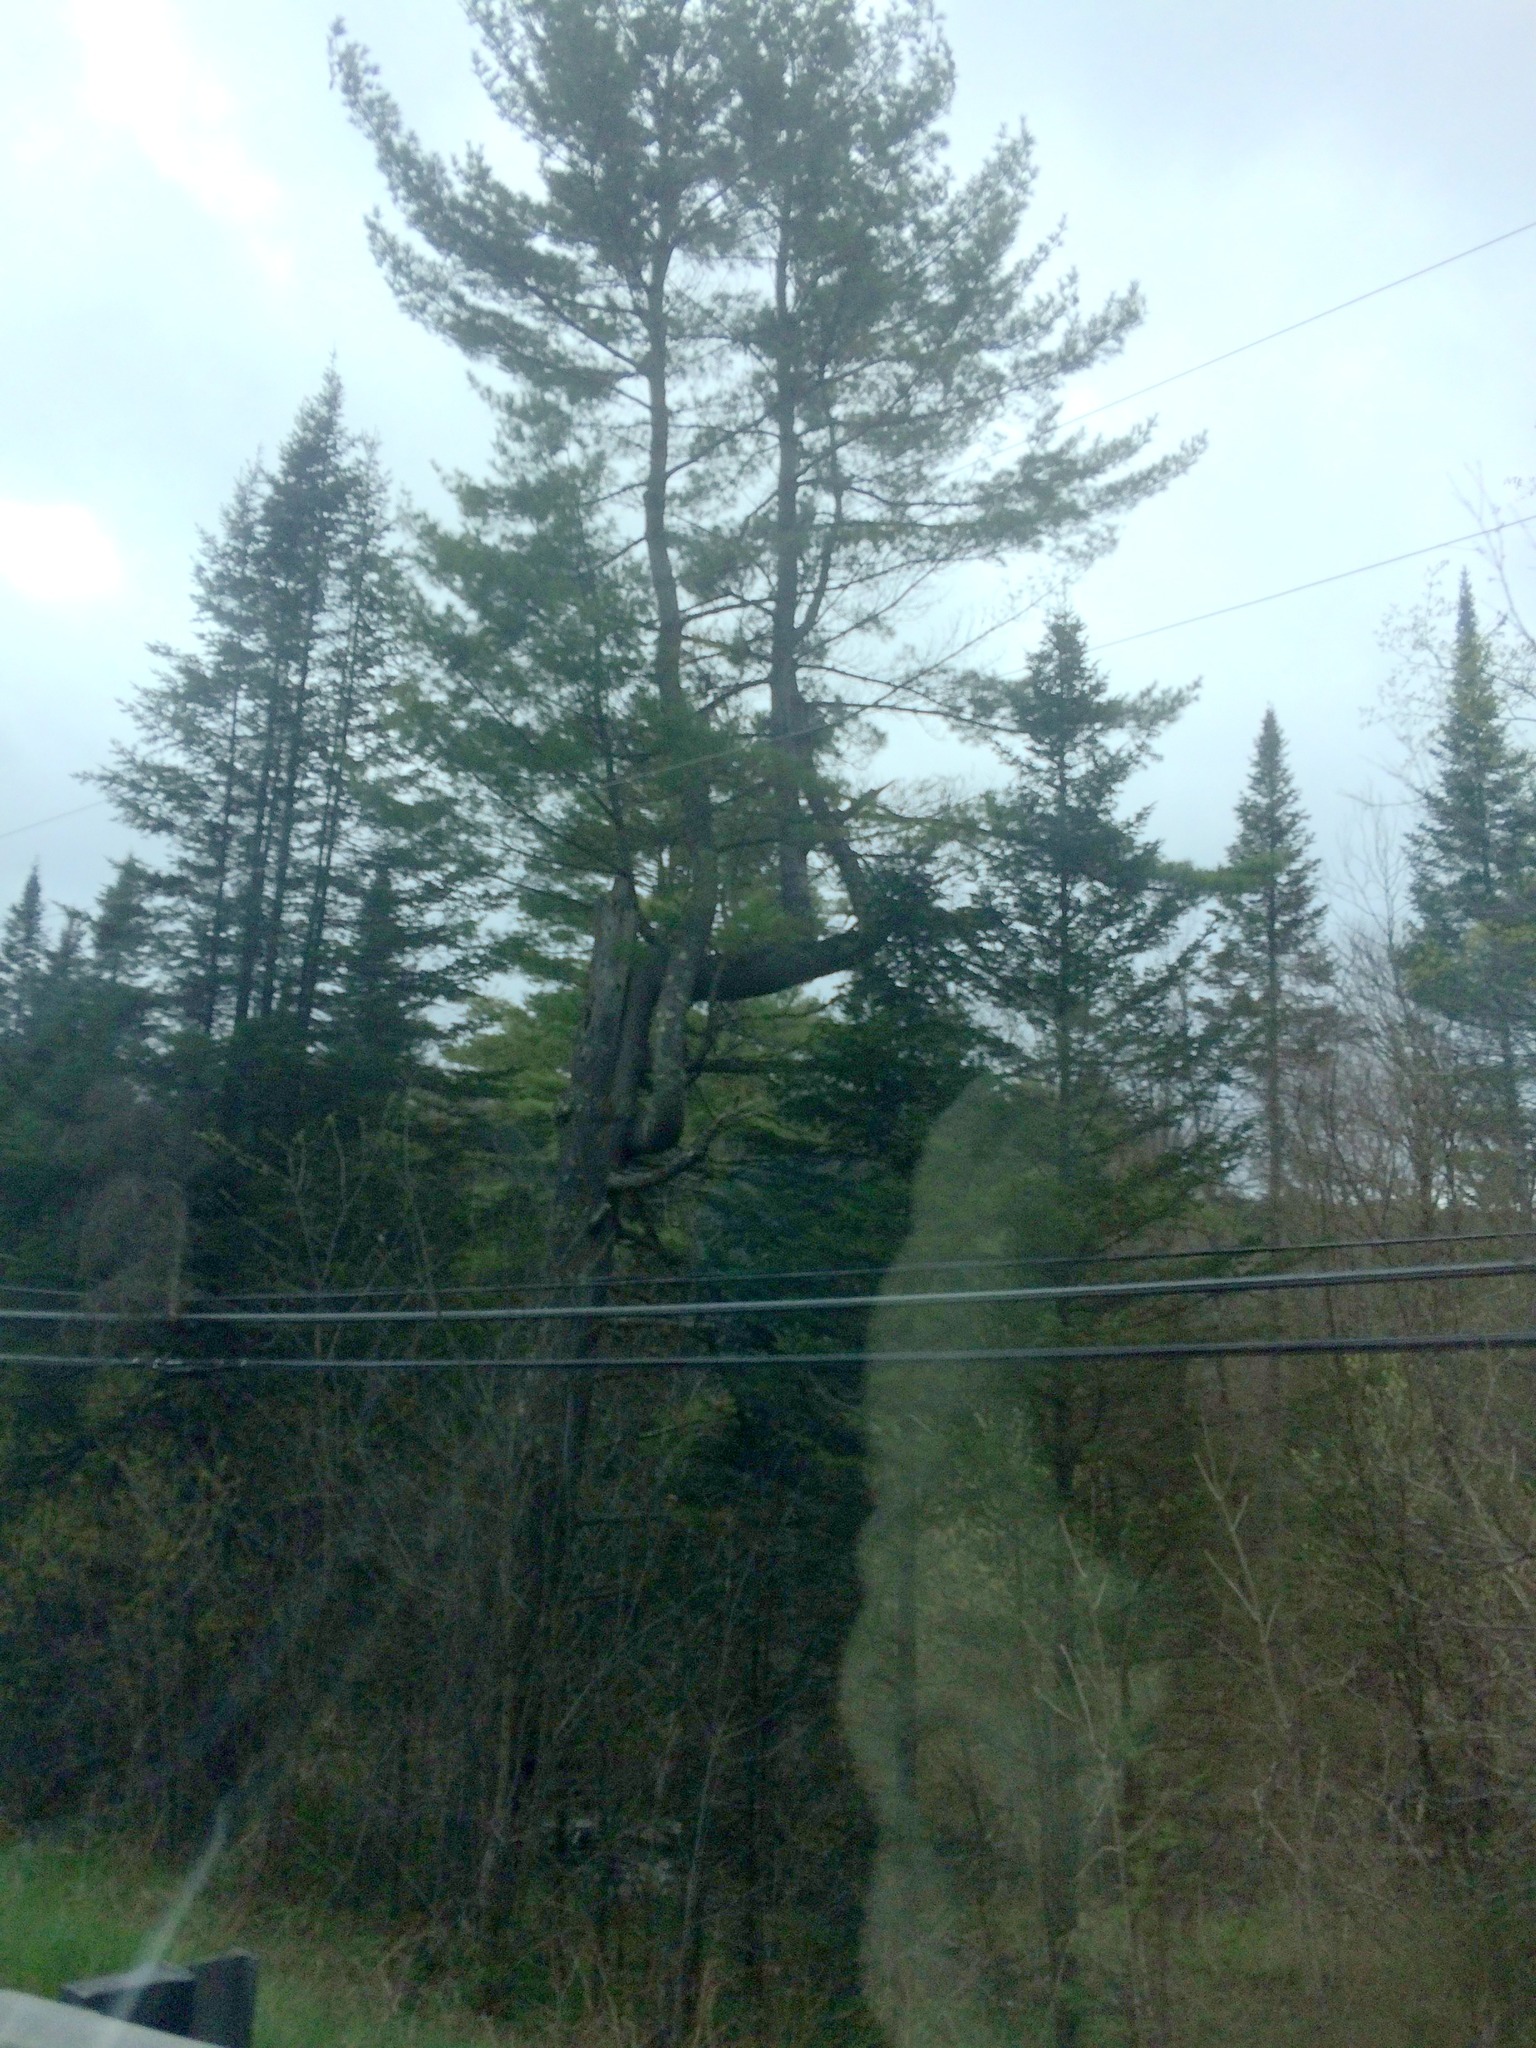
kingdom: Plantae
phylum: Tracheophyta
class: Pinopsida
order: Pinales
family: Pinaceae
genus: Pinus
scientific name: Pinus strobus
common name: Weymouth pine
